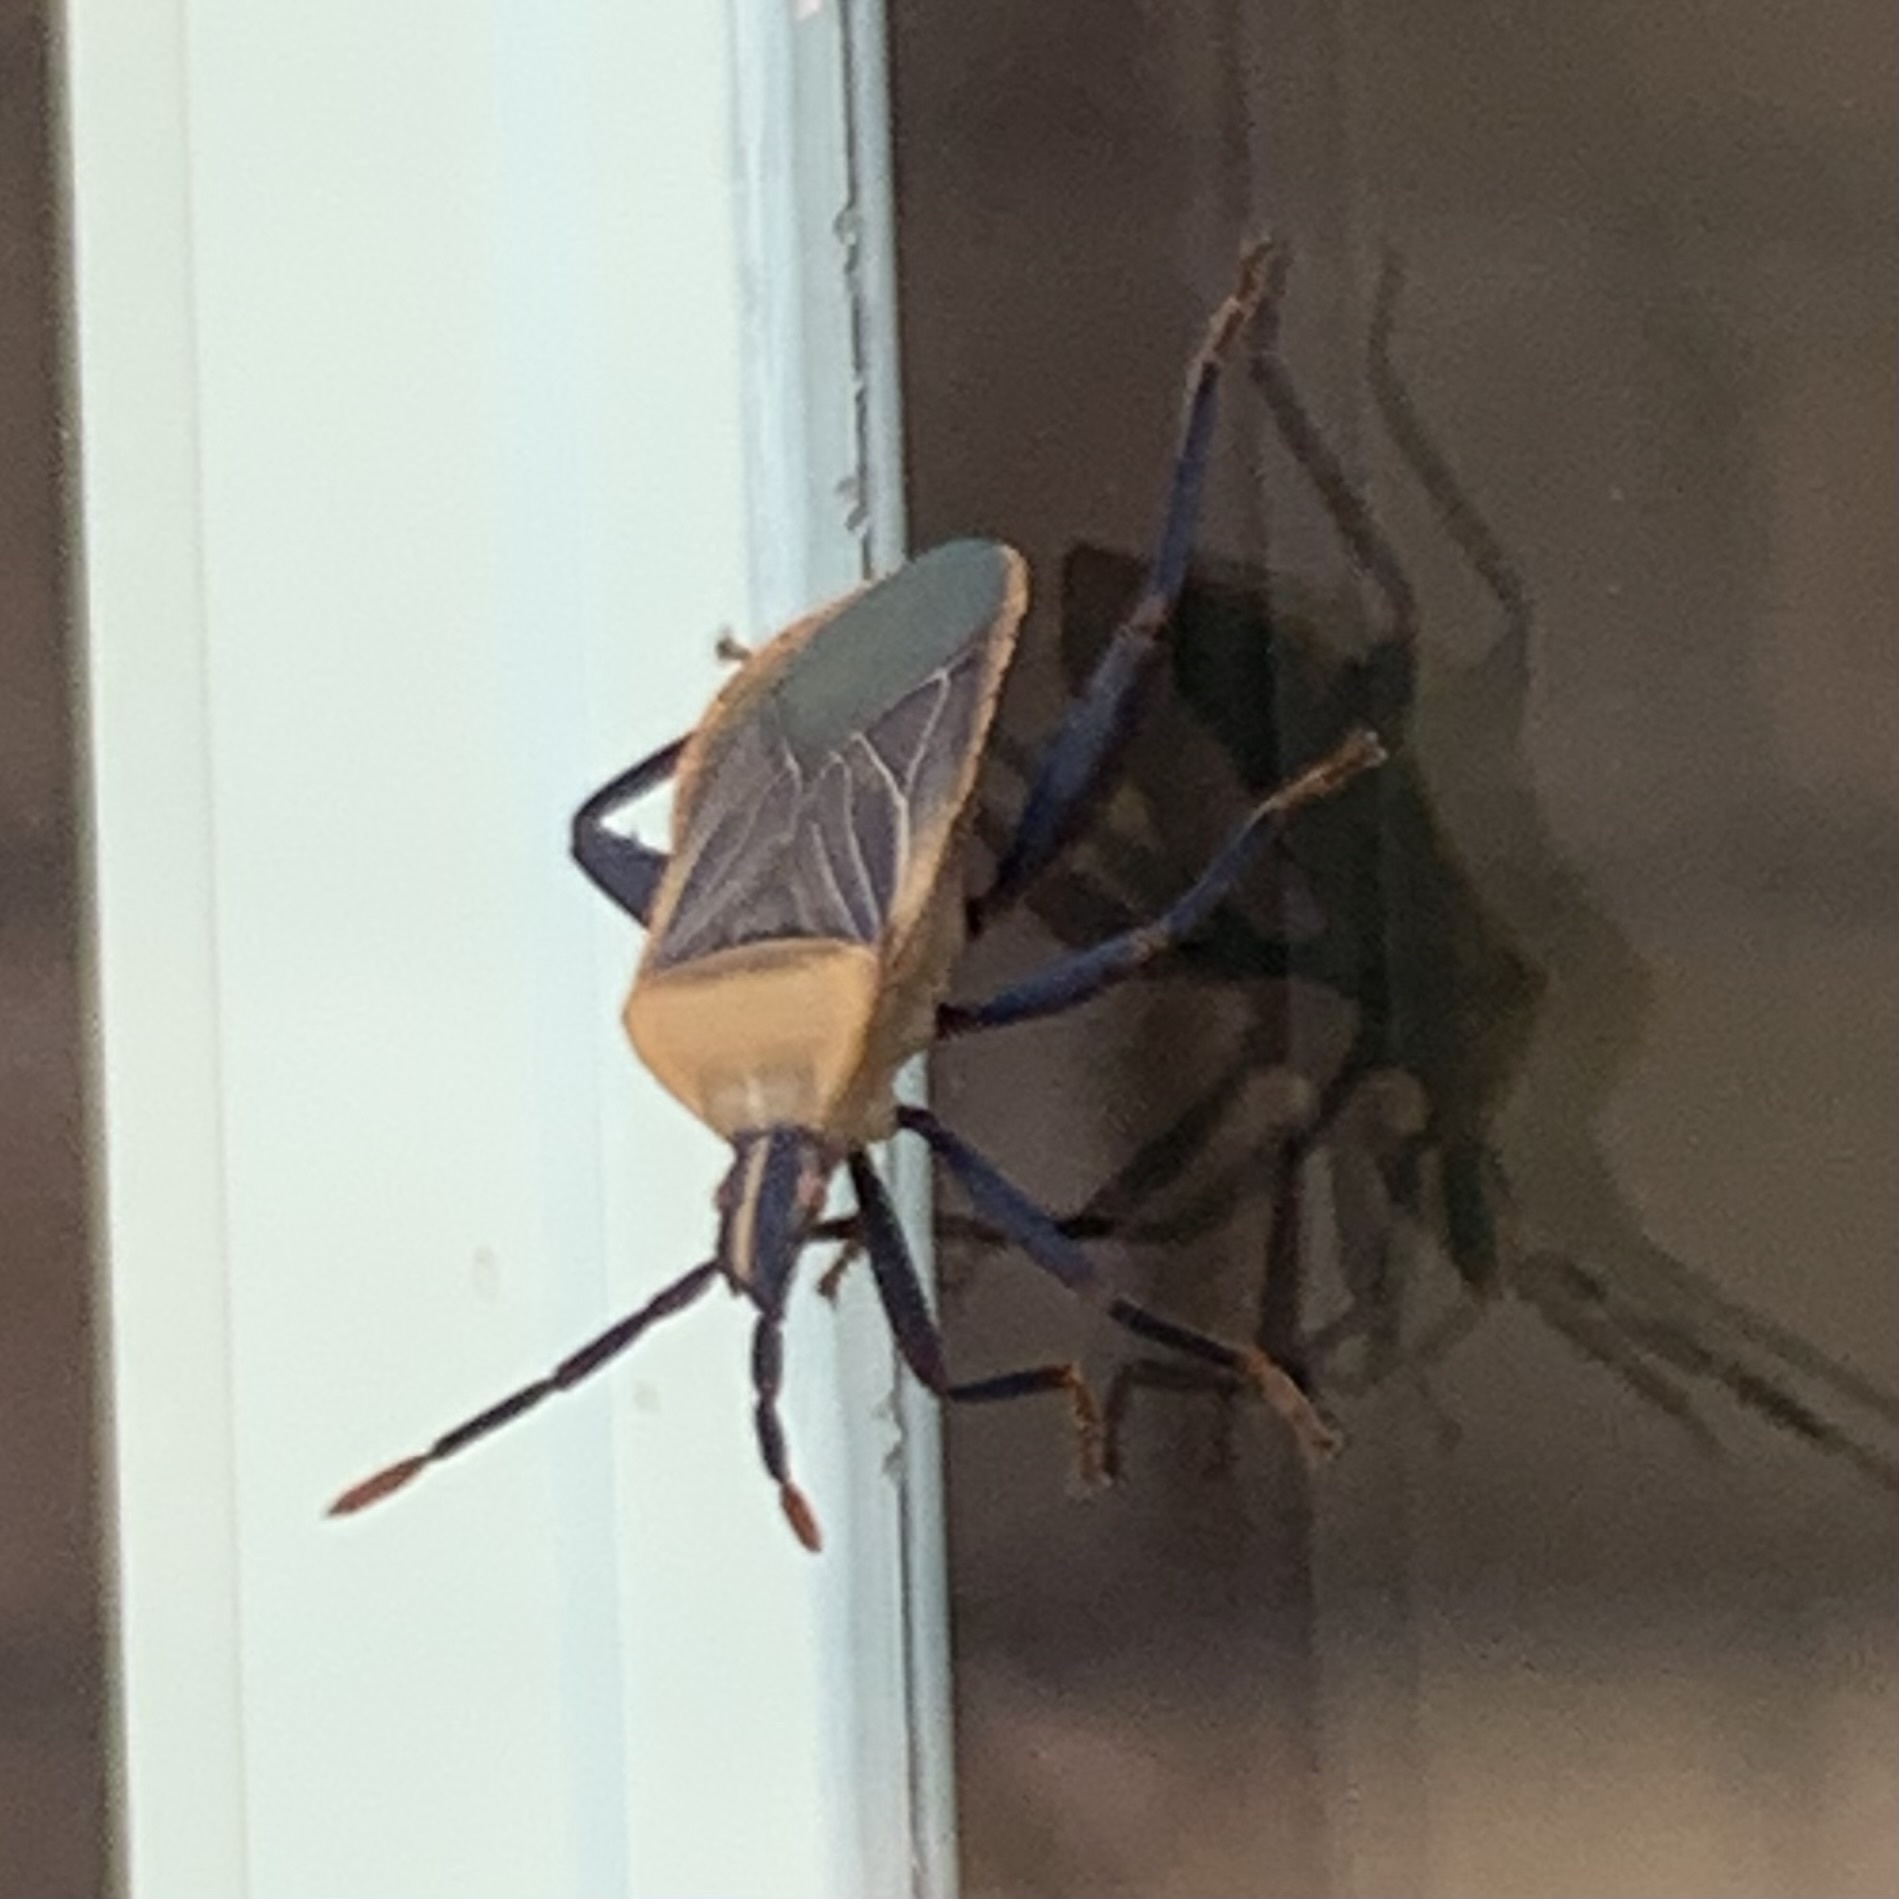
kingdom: Animalia
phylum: Arthropoda
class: Insecta
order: Hemiptera
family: Coreidae
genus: Chelinidea
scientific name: Chelinidea vittiger
